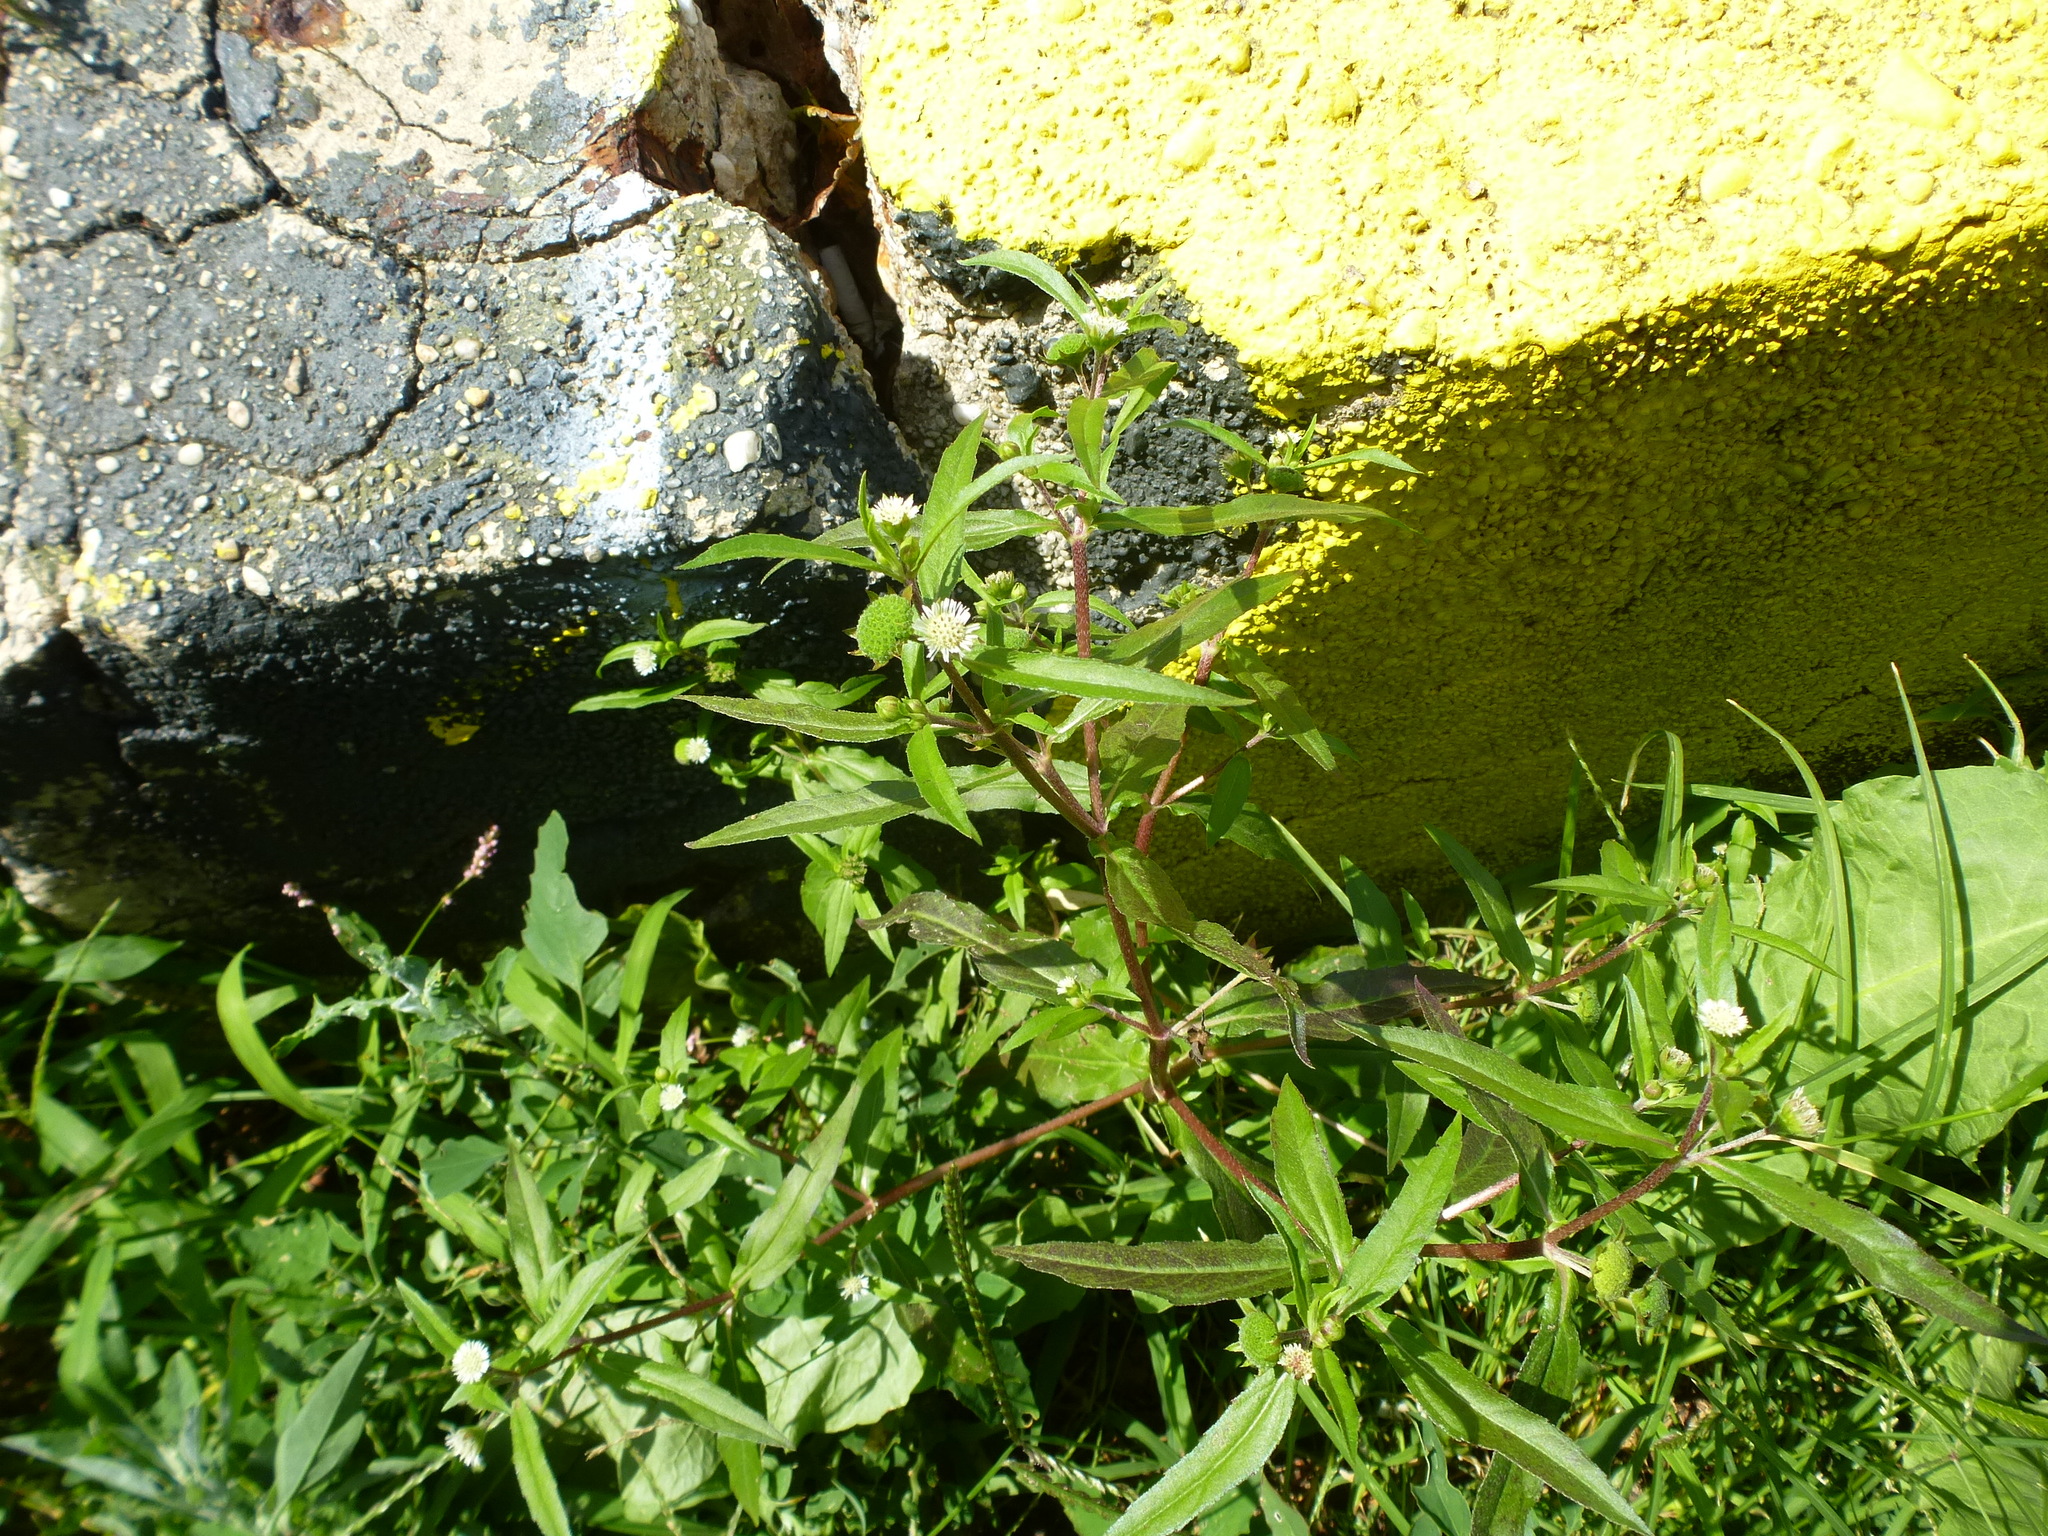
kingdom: Plantae
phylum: Tracheophyta
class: Magnoliopsida
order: Asterales
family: Asteraceae
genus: Eclipta
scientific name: Eclipta prostrata
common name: False daisy
